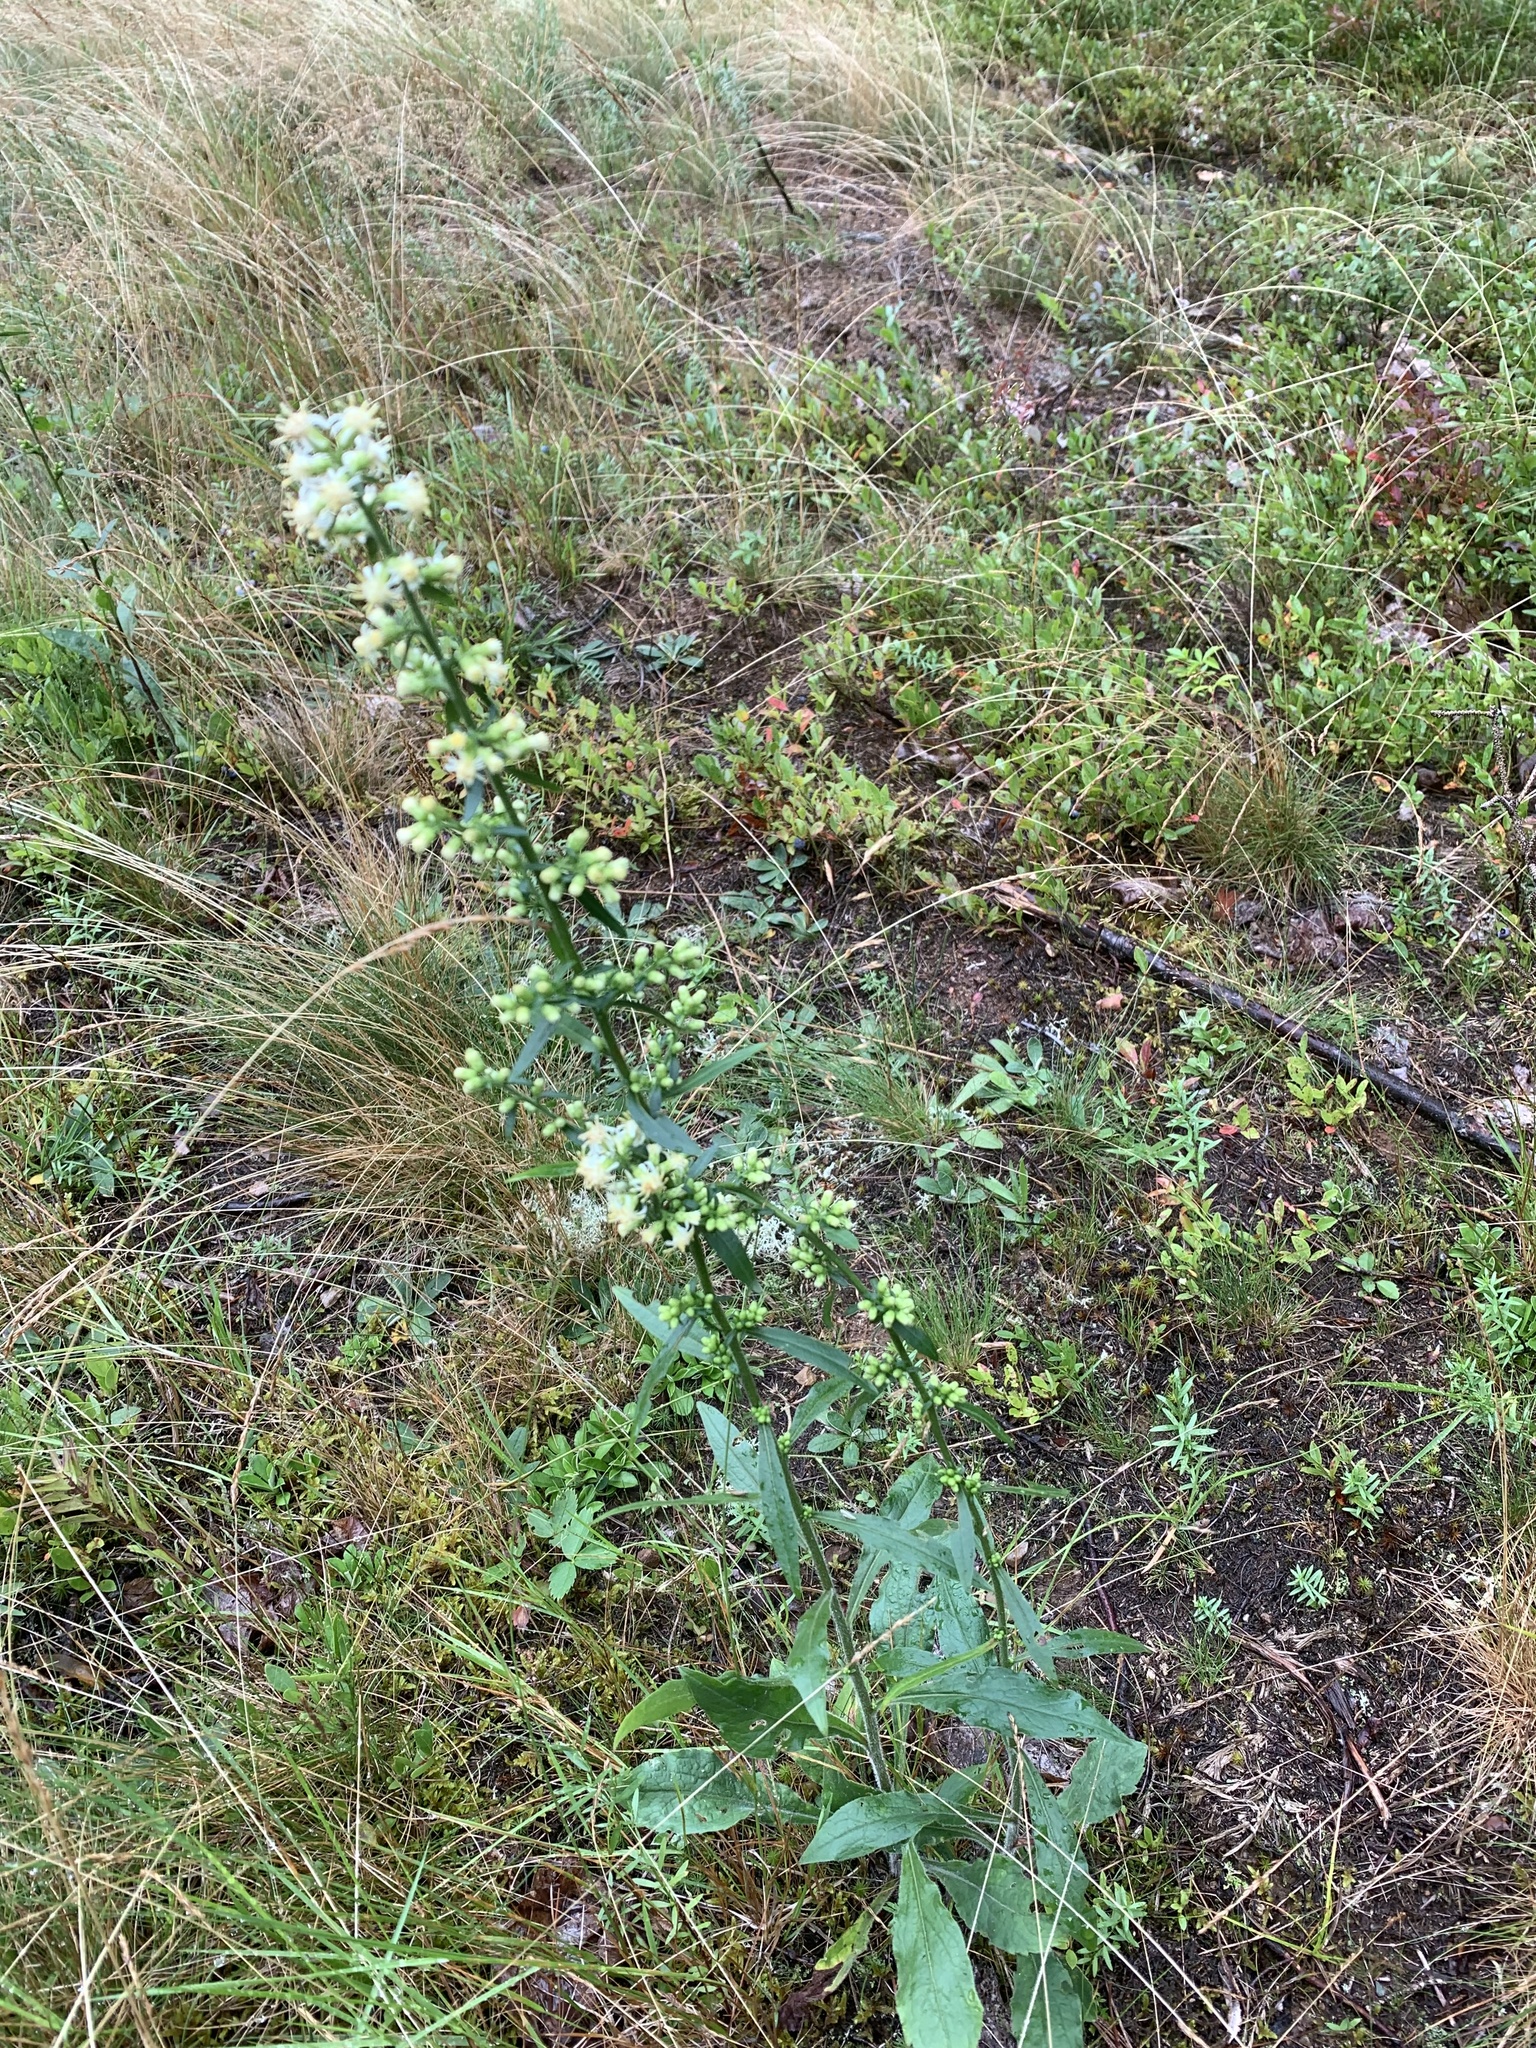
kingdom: Plantae
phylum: Tracheophyta
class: Magnoliopsida
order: Asterales
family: Asteraceae
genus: Solidago
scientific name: Solidago bicolor
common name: Silverrod
